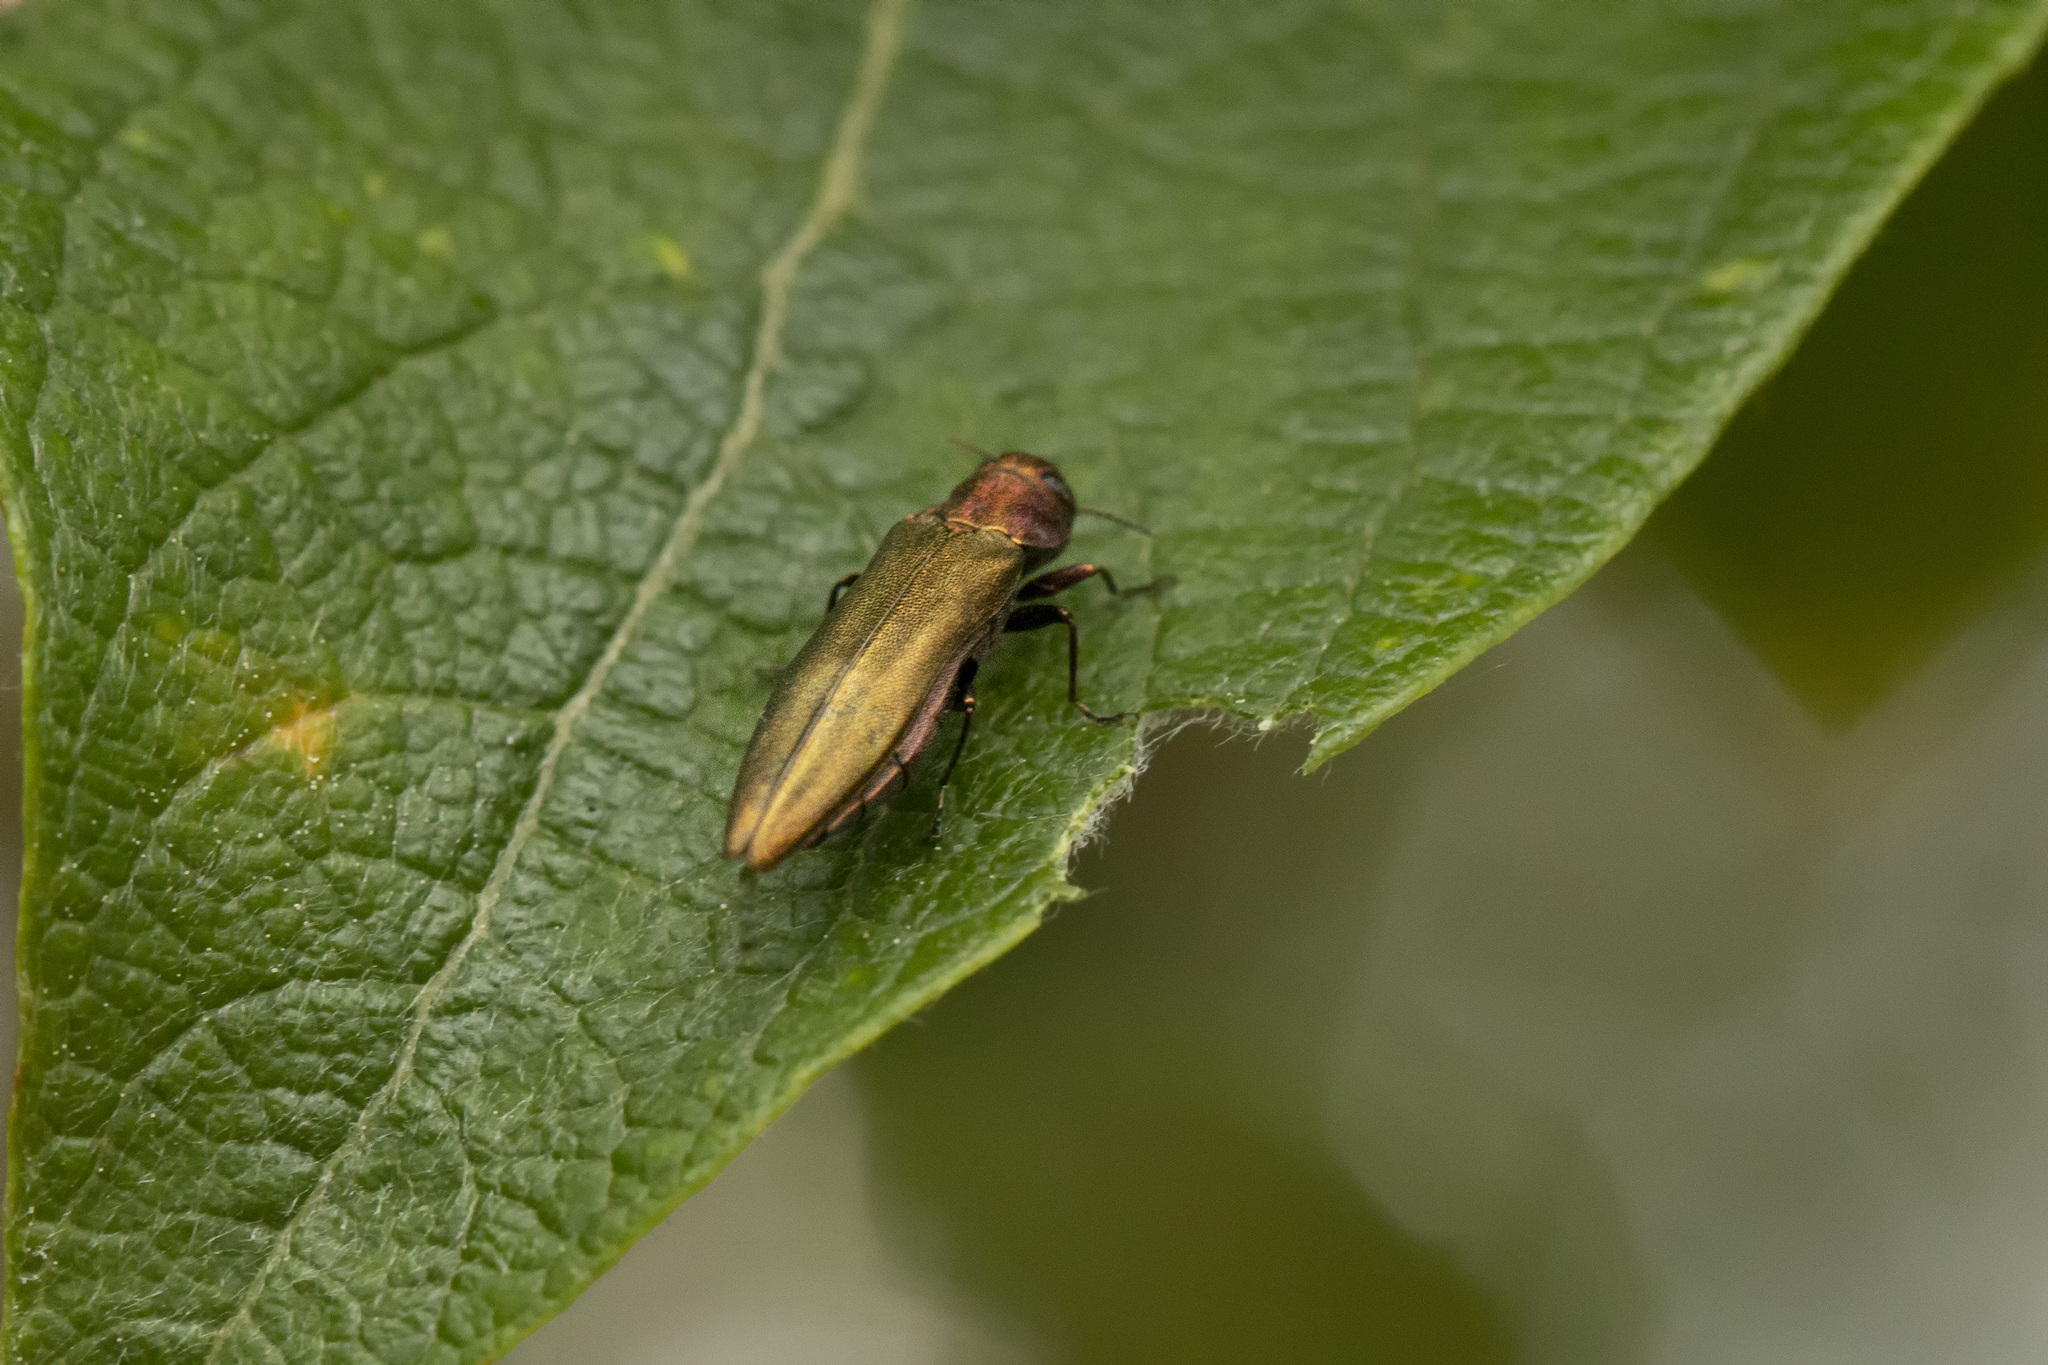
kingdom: Animalia
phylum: Arthropoda
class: Insecta
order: Coleoptera
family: Buprestidae
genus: Agrilus
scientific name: Agrilus viridis
